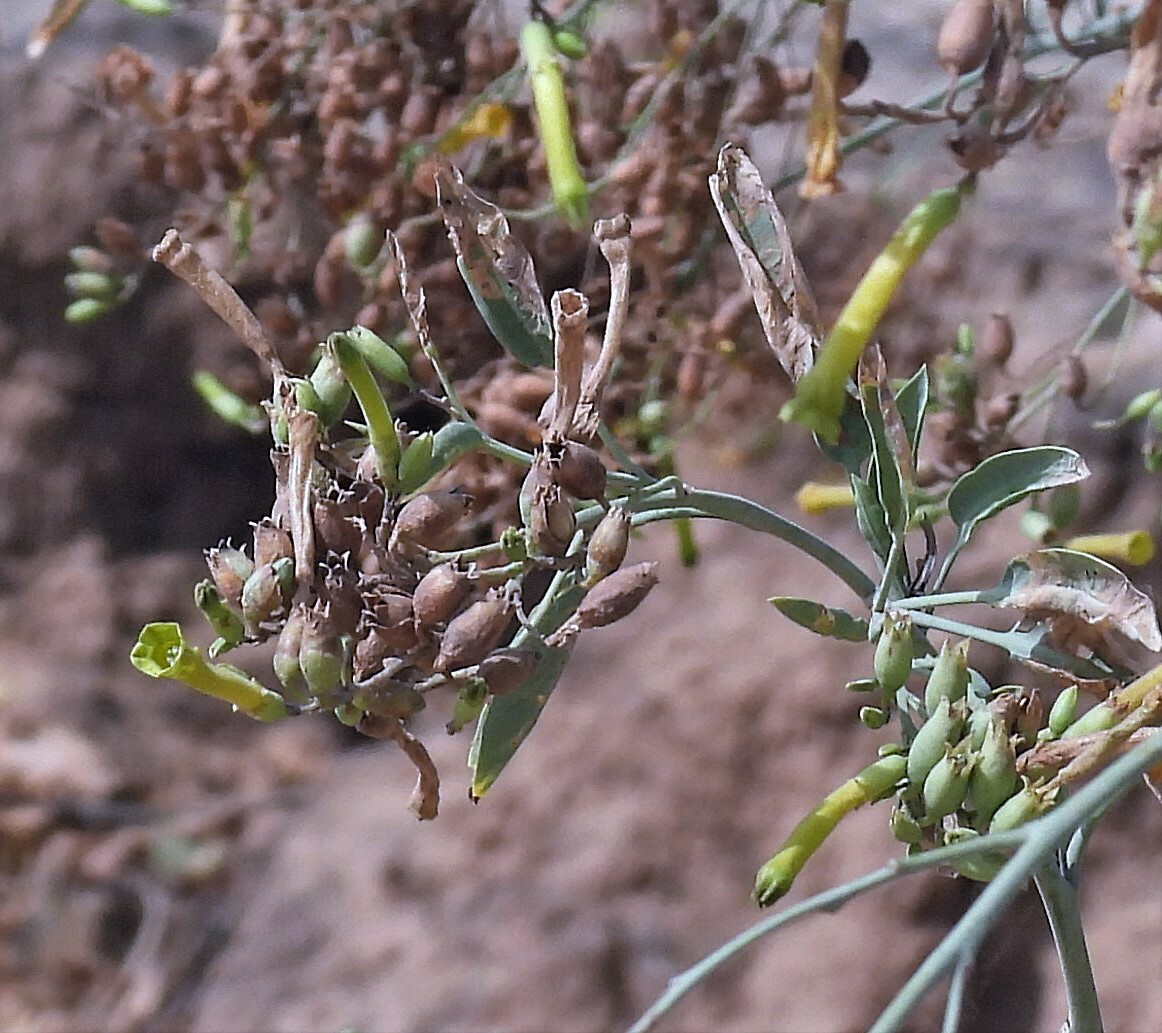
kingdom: Plantae
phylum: Tracheophyta
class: Magnoliopsida
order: Solanales
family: Solanaceae
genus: Nicotiana
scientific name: Nicotiana glauca
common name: Tree tobacco
